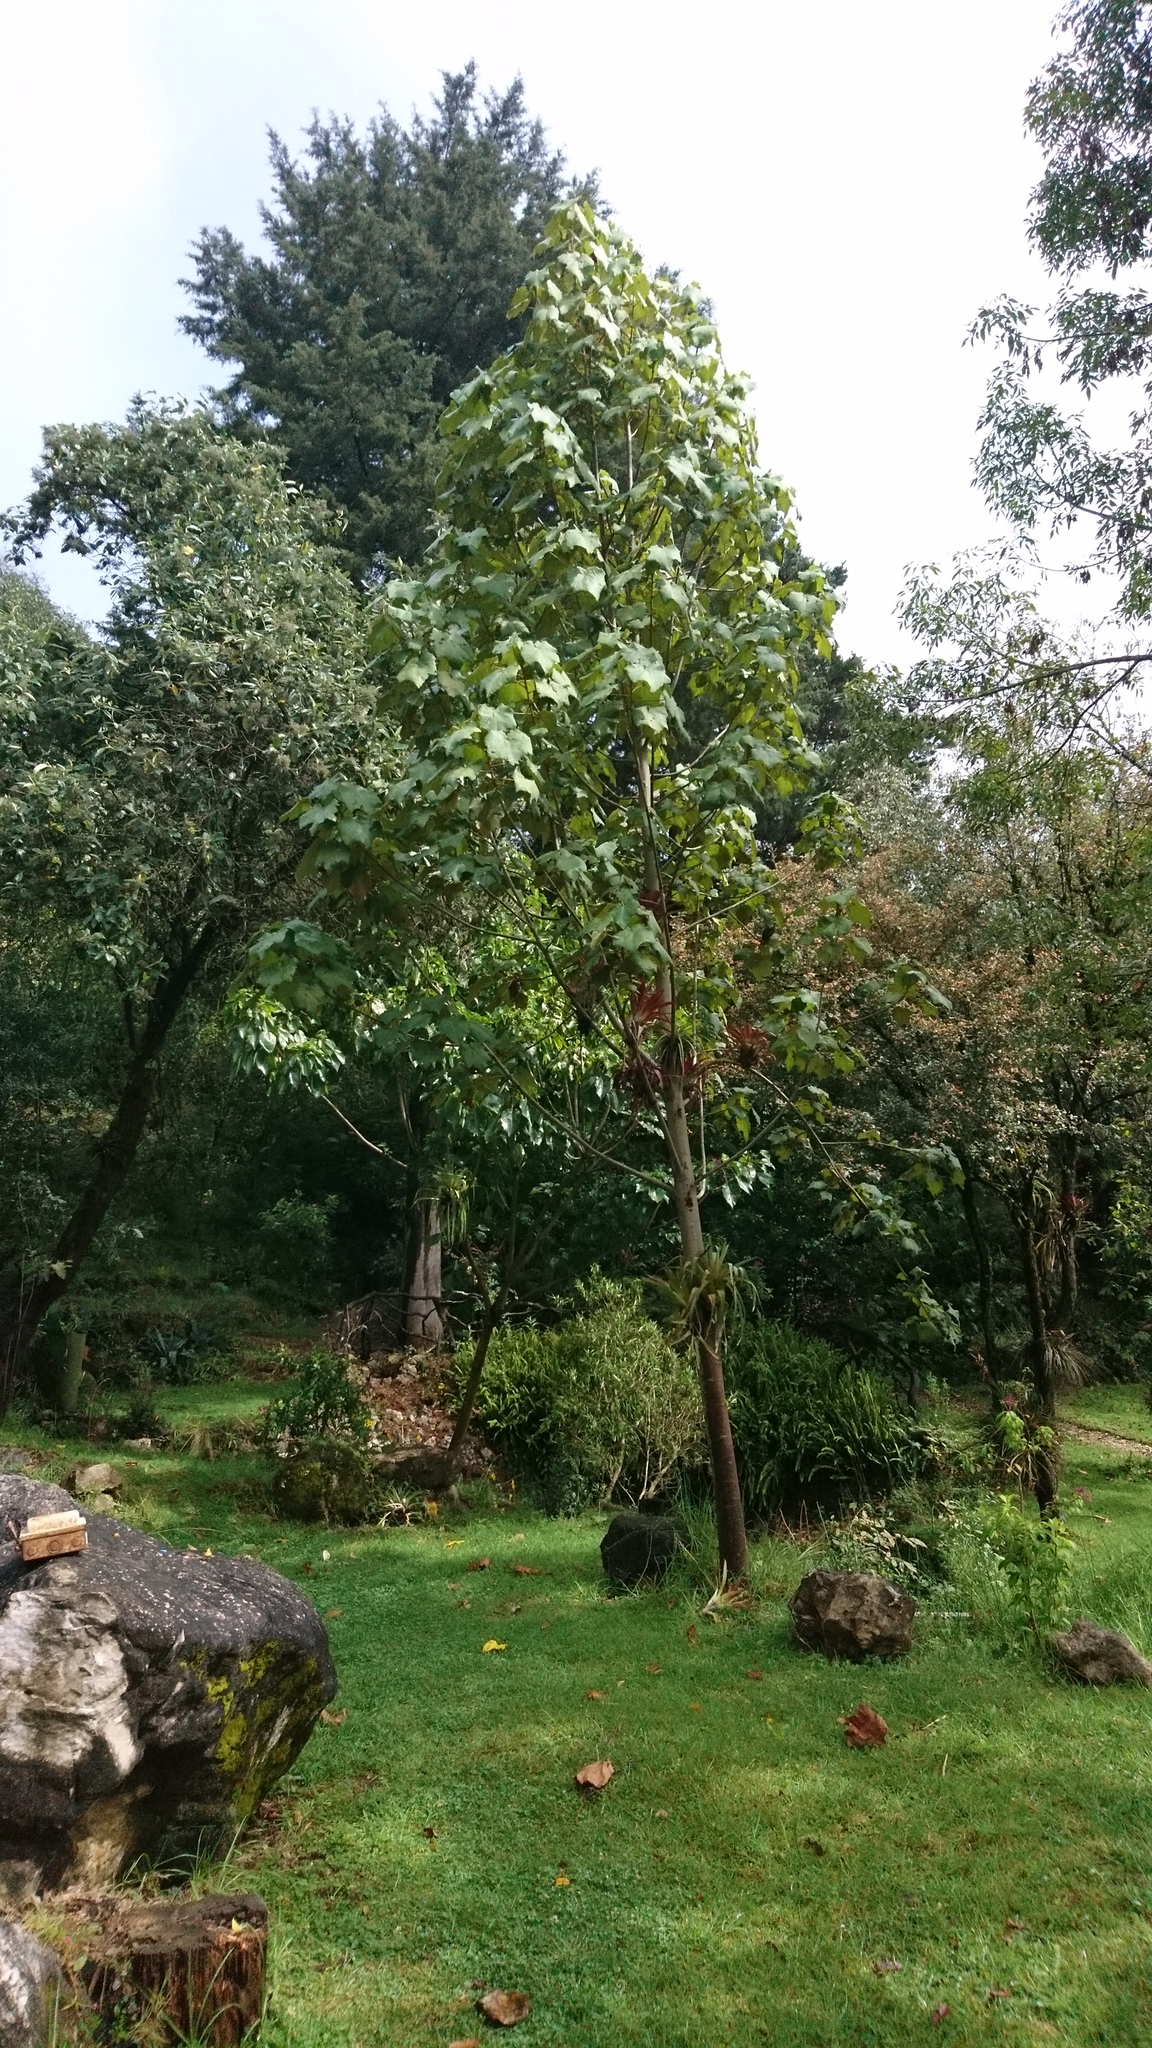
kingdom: Plantae
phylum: Tracheophyta
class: Magnoliopsida
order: Malvales
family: Malvaceae
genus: Chiranthodendron
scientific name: Chiranthodendron pentadactylon
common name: Mexican-hat-plant
